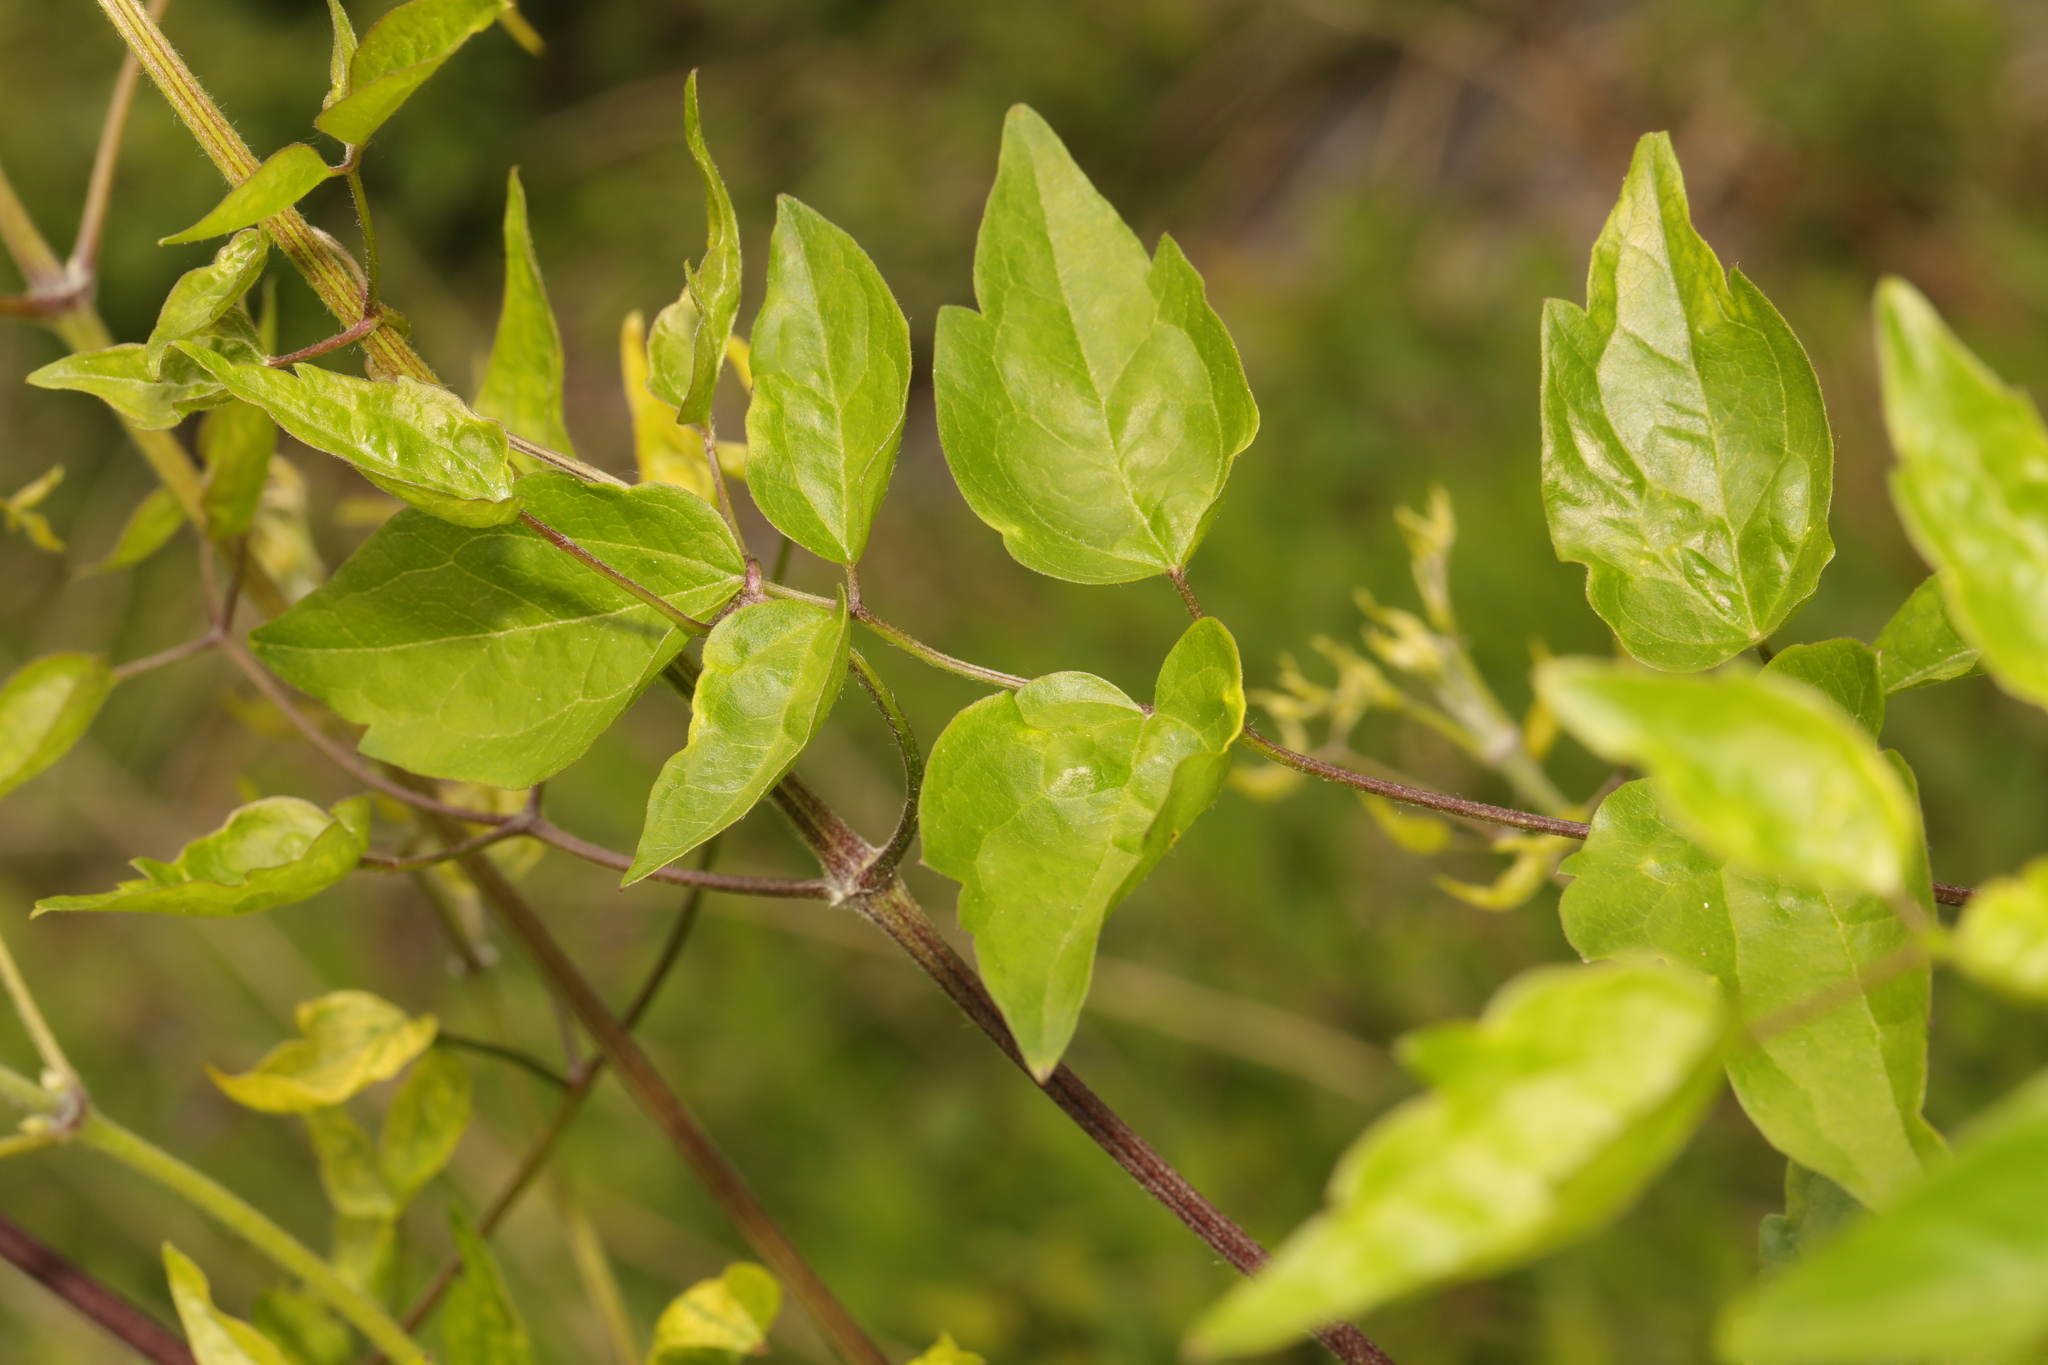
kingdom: Plantae
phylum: Tracheophyta
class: Magnoliopsida
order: Ranunculales
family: Ranunculaceae
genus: Clematis
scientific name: Clematis vitalba
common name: Evergreen clematis
